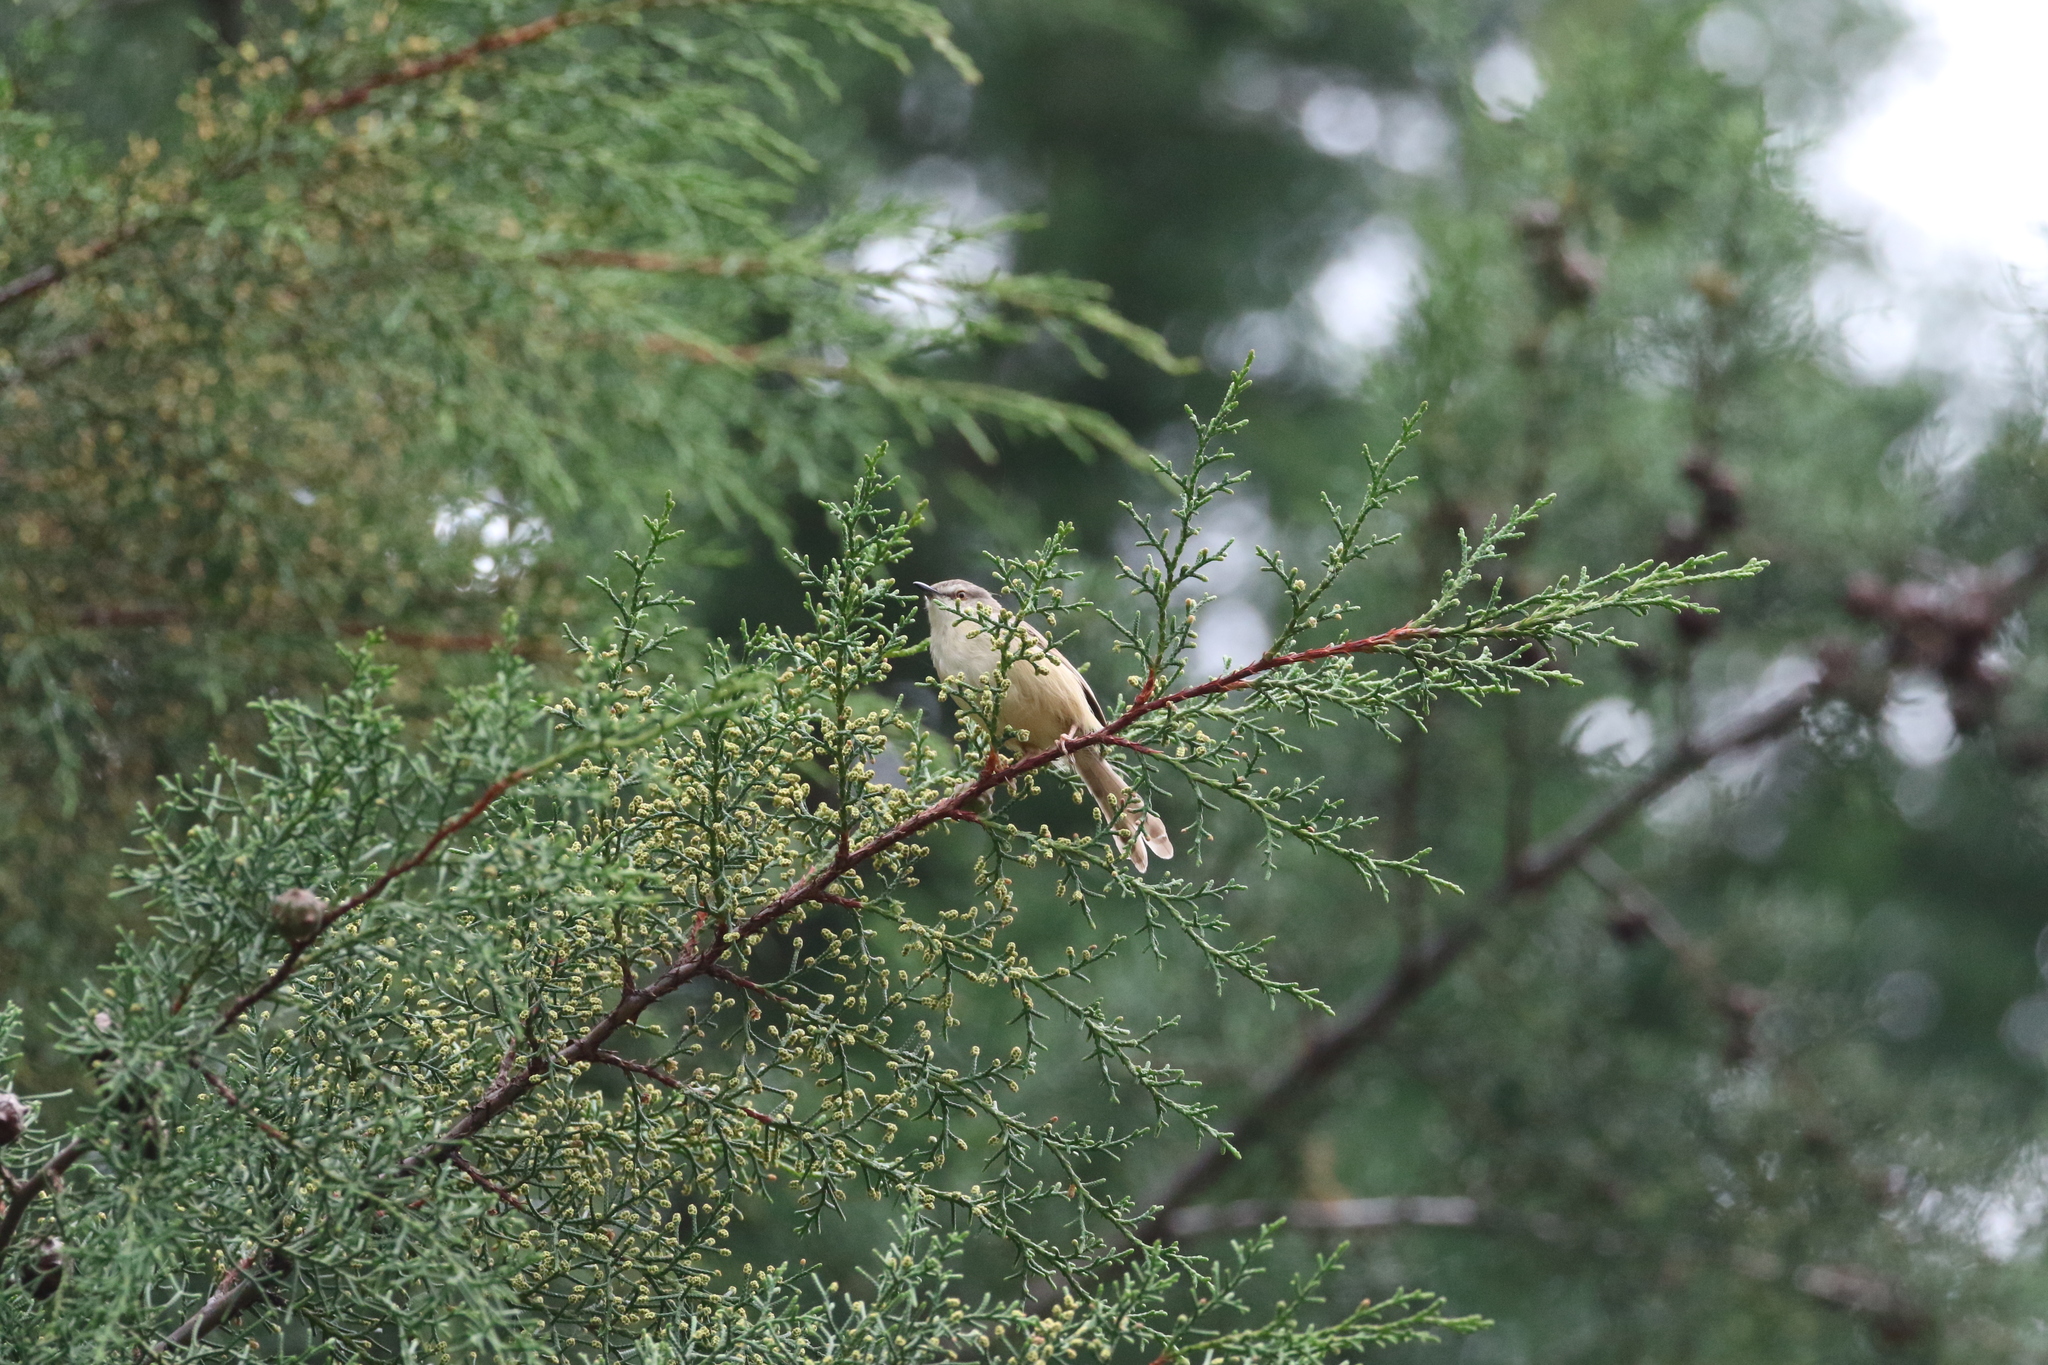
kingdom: Animalia
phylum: Chordata
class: Aves
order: Passeriformes
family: Cisticolidae
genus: Prinia
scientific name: Prinia subflava
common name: Tawny-flanked prinia
